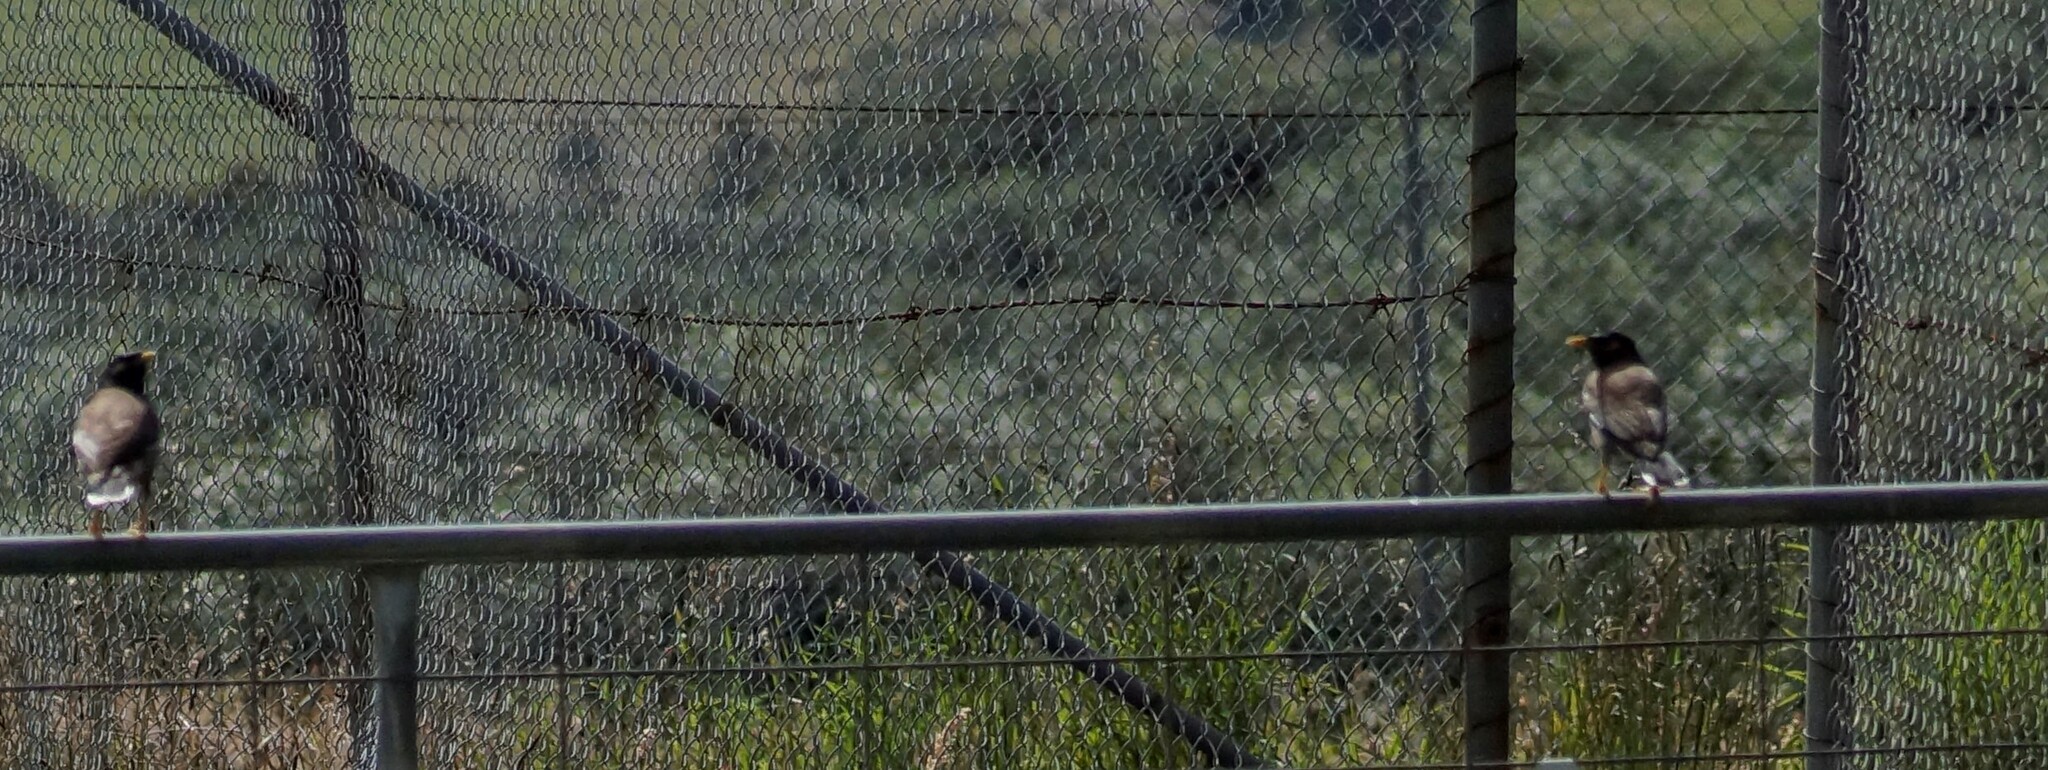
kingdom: Animalia
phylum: Chordata
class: Aves
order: Passeriformes
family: Sturnidae
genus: Acridotheres
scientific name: Acridotheres tristis
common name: Common myna
